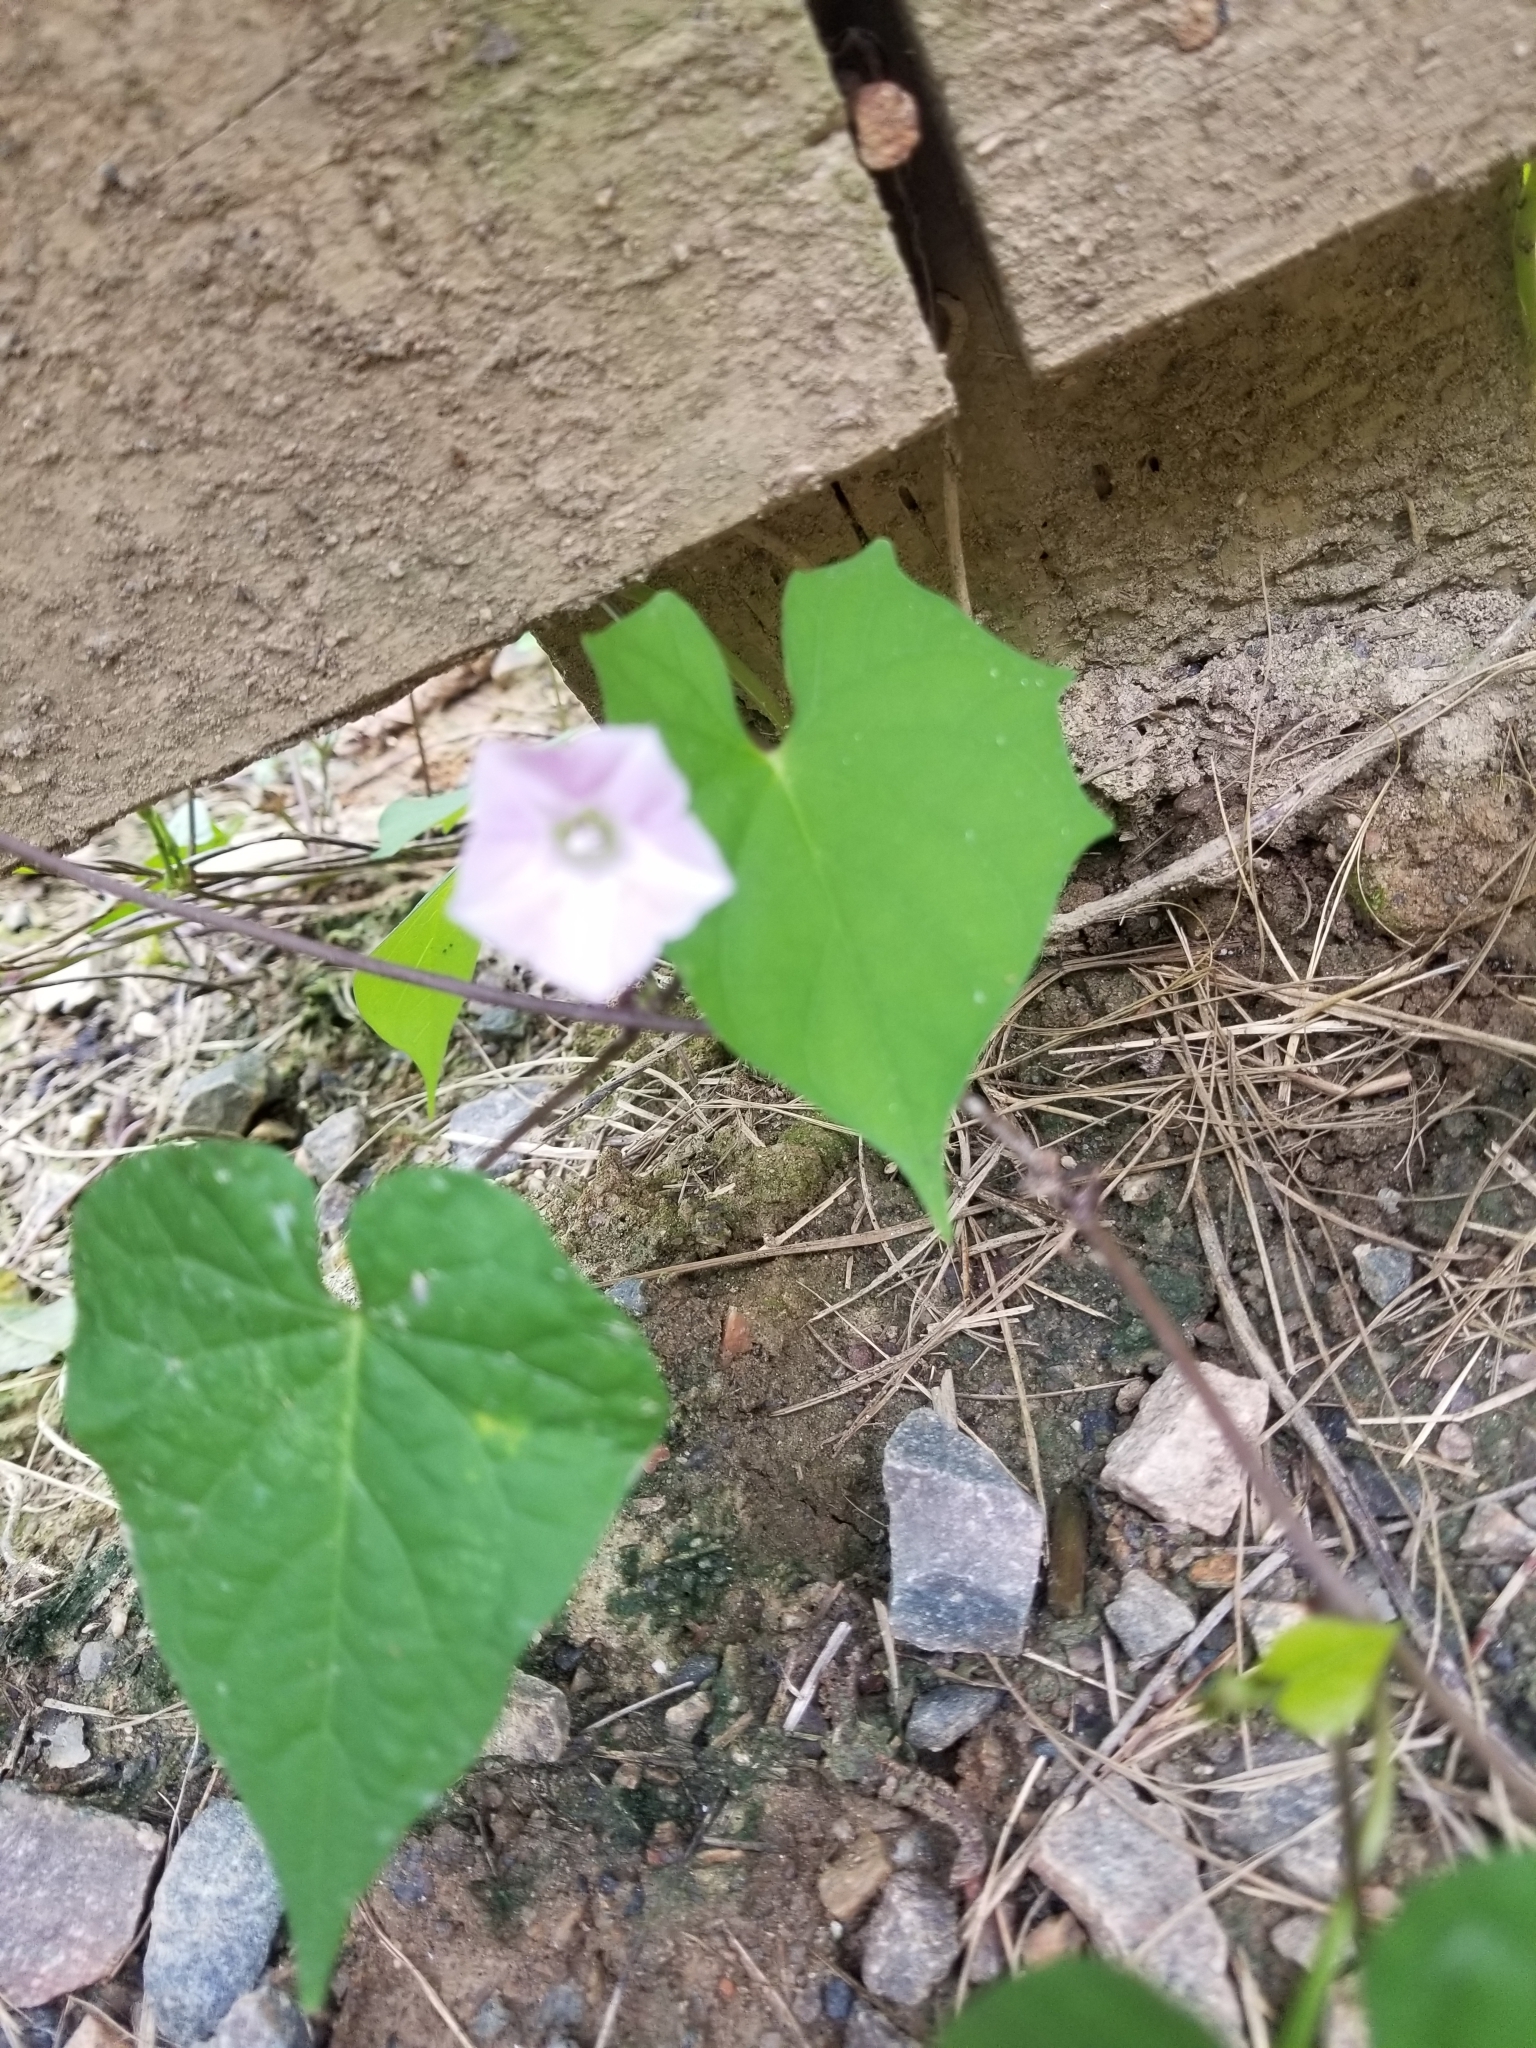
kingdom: Plantae
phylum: Tracheophyta
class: Magnoliopsida
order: Solanales
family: Convolvulaceae
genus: Ipomoea
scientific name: Ipomoea triloba
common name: Little-bell
